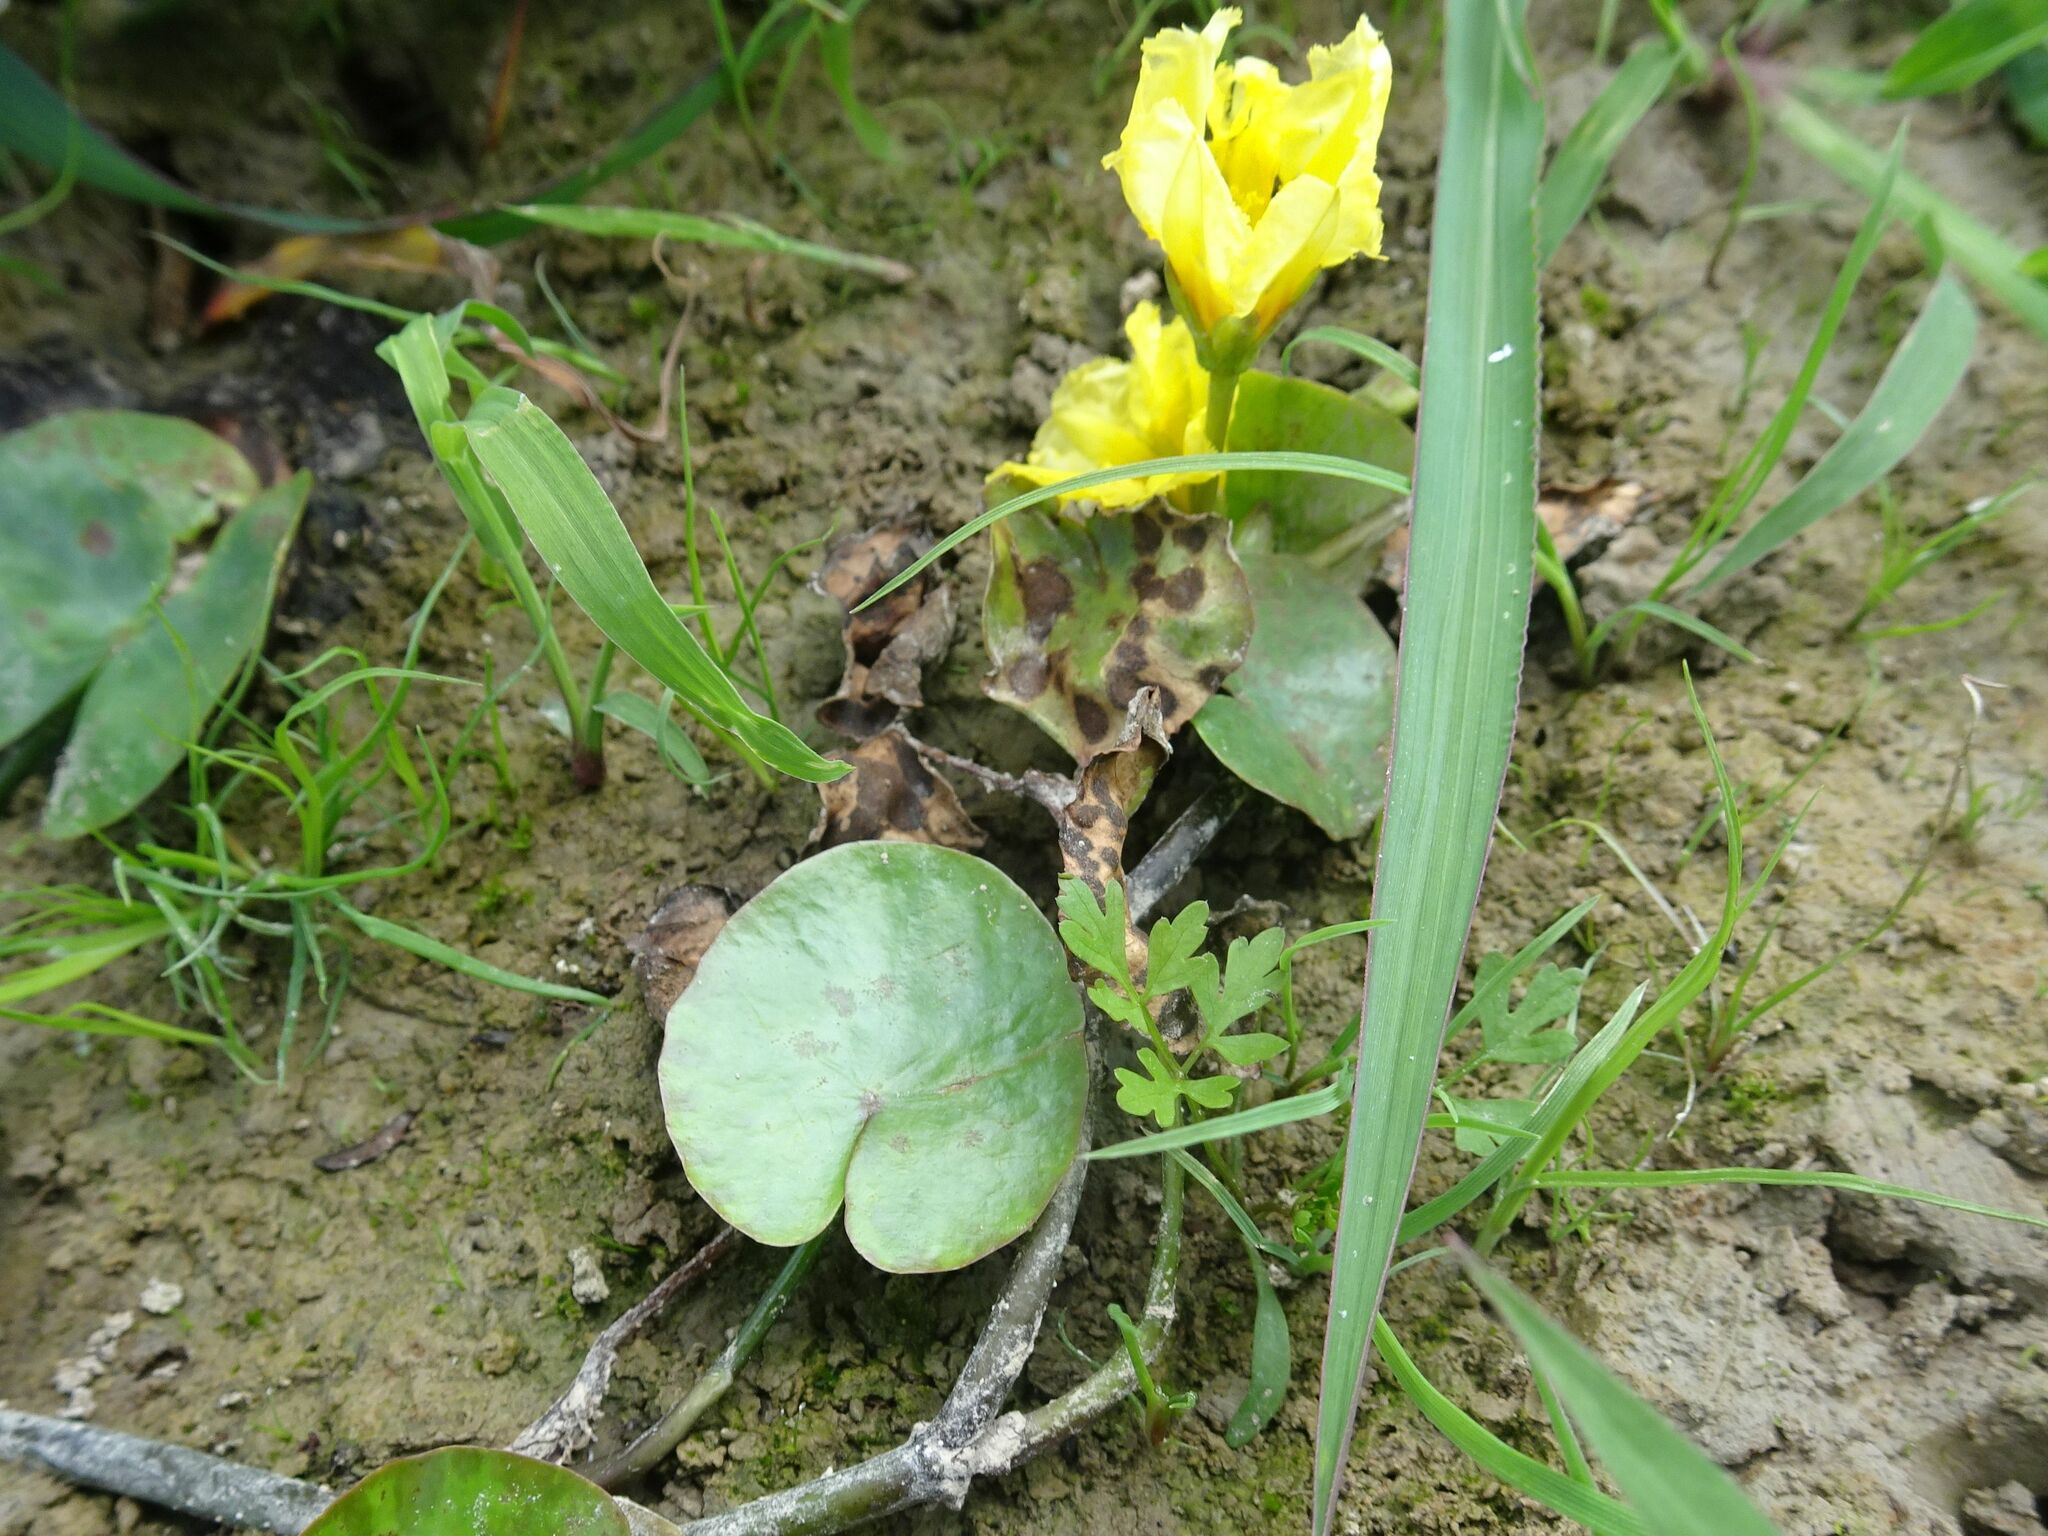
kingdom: Plantae
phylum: Tracheophyta
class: Magnoliopsida
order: Asterales
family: Menyanthaceae
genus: Nymphoides
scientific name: Nymphoides peltata
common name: Fringed water-lily
